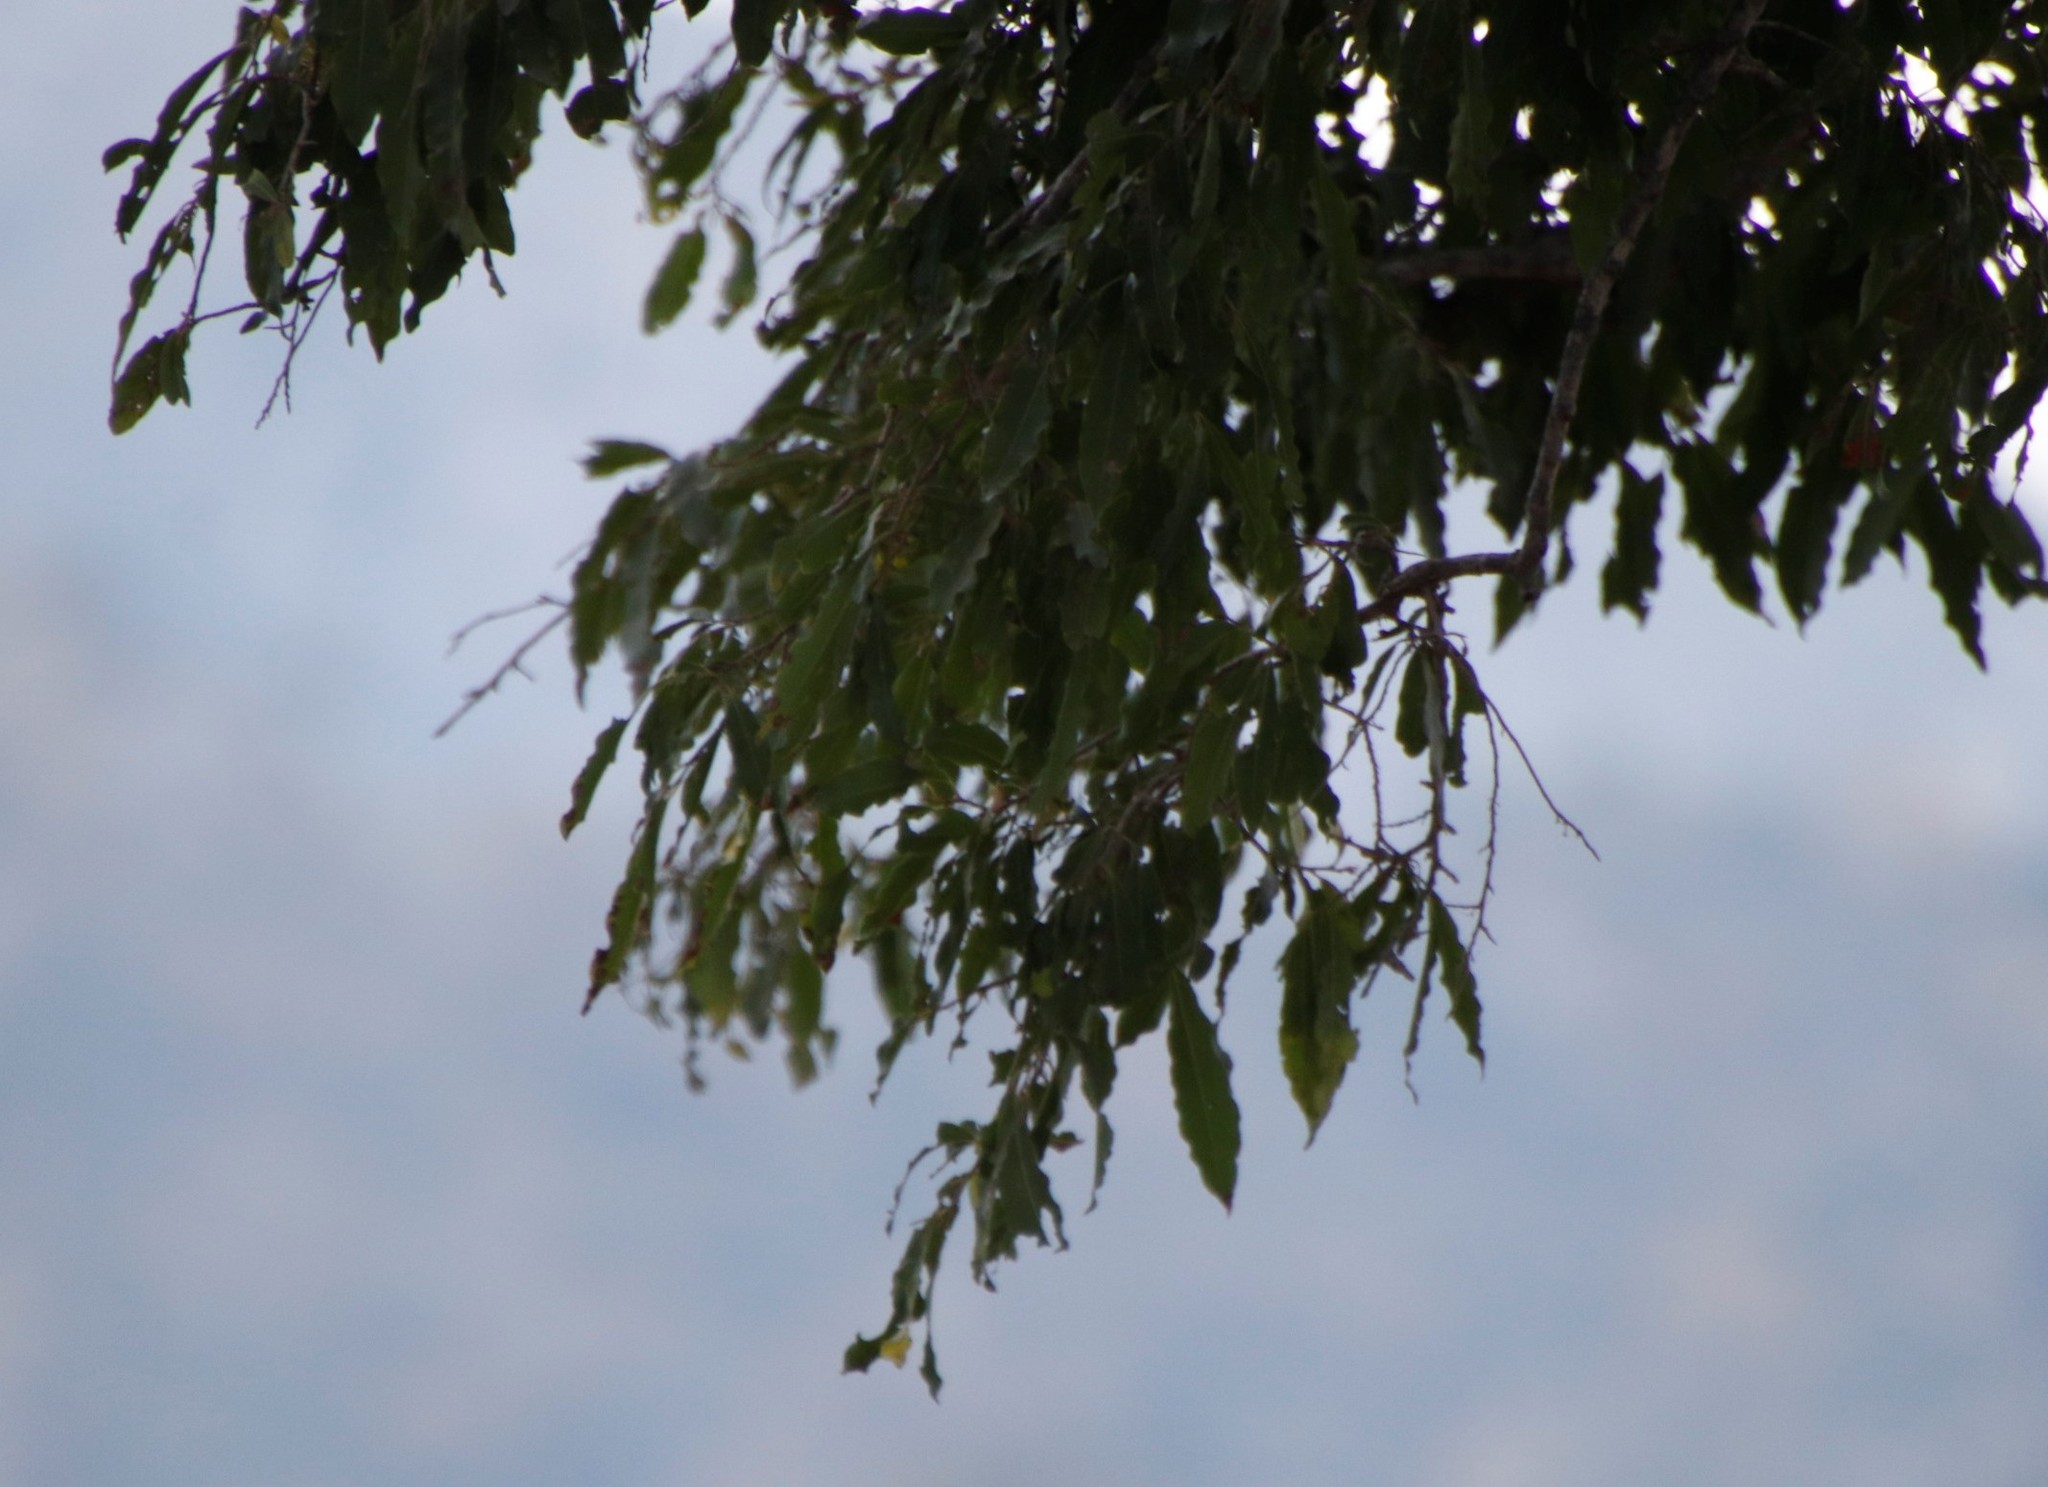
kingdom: Plantae
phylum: Tracheophyta
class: Magnoliopsida
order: Ericales
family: Ebenaceae
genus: Diospyros
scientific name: Diospyros mespiliformis
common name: Ebony diospyros
